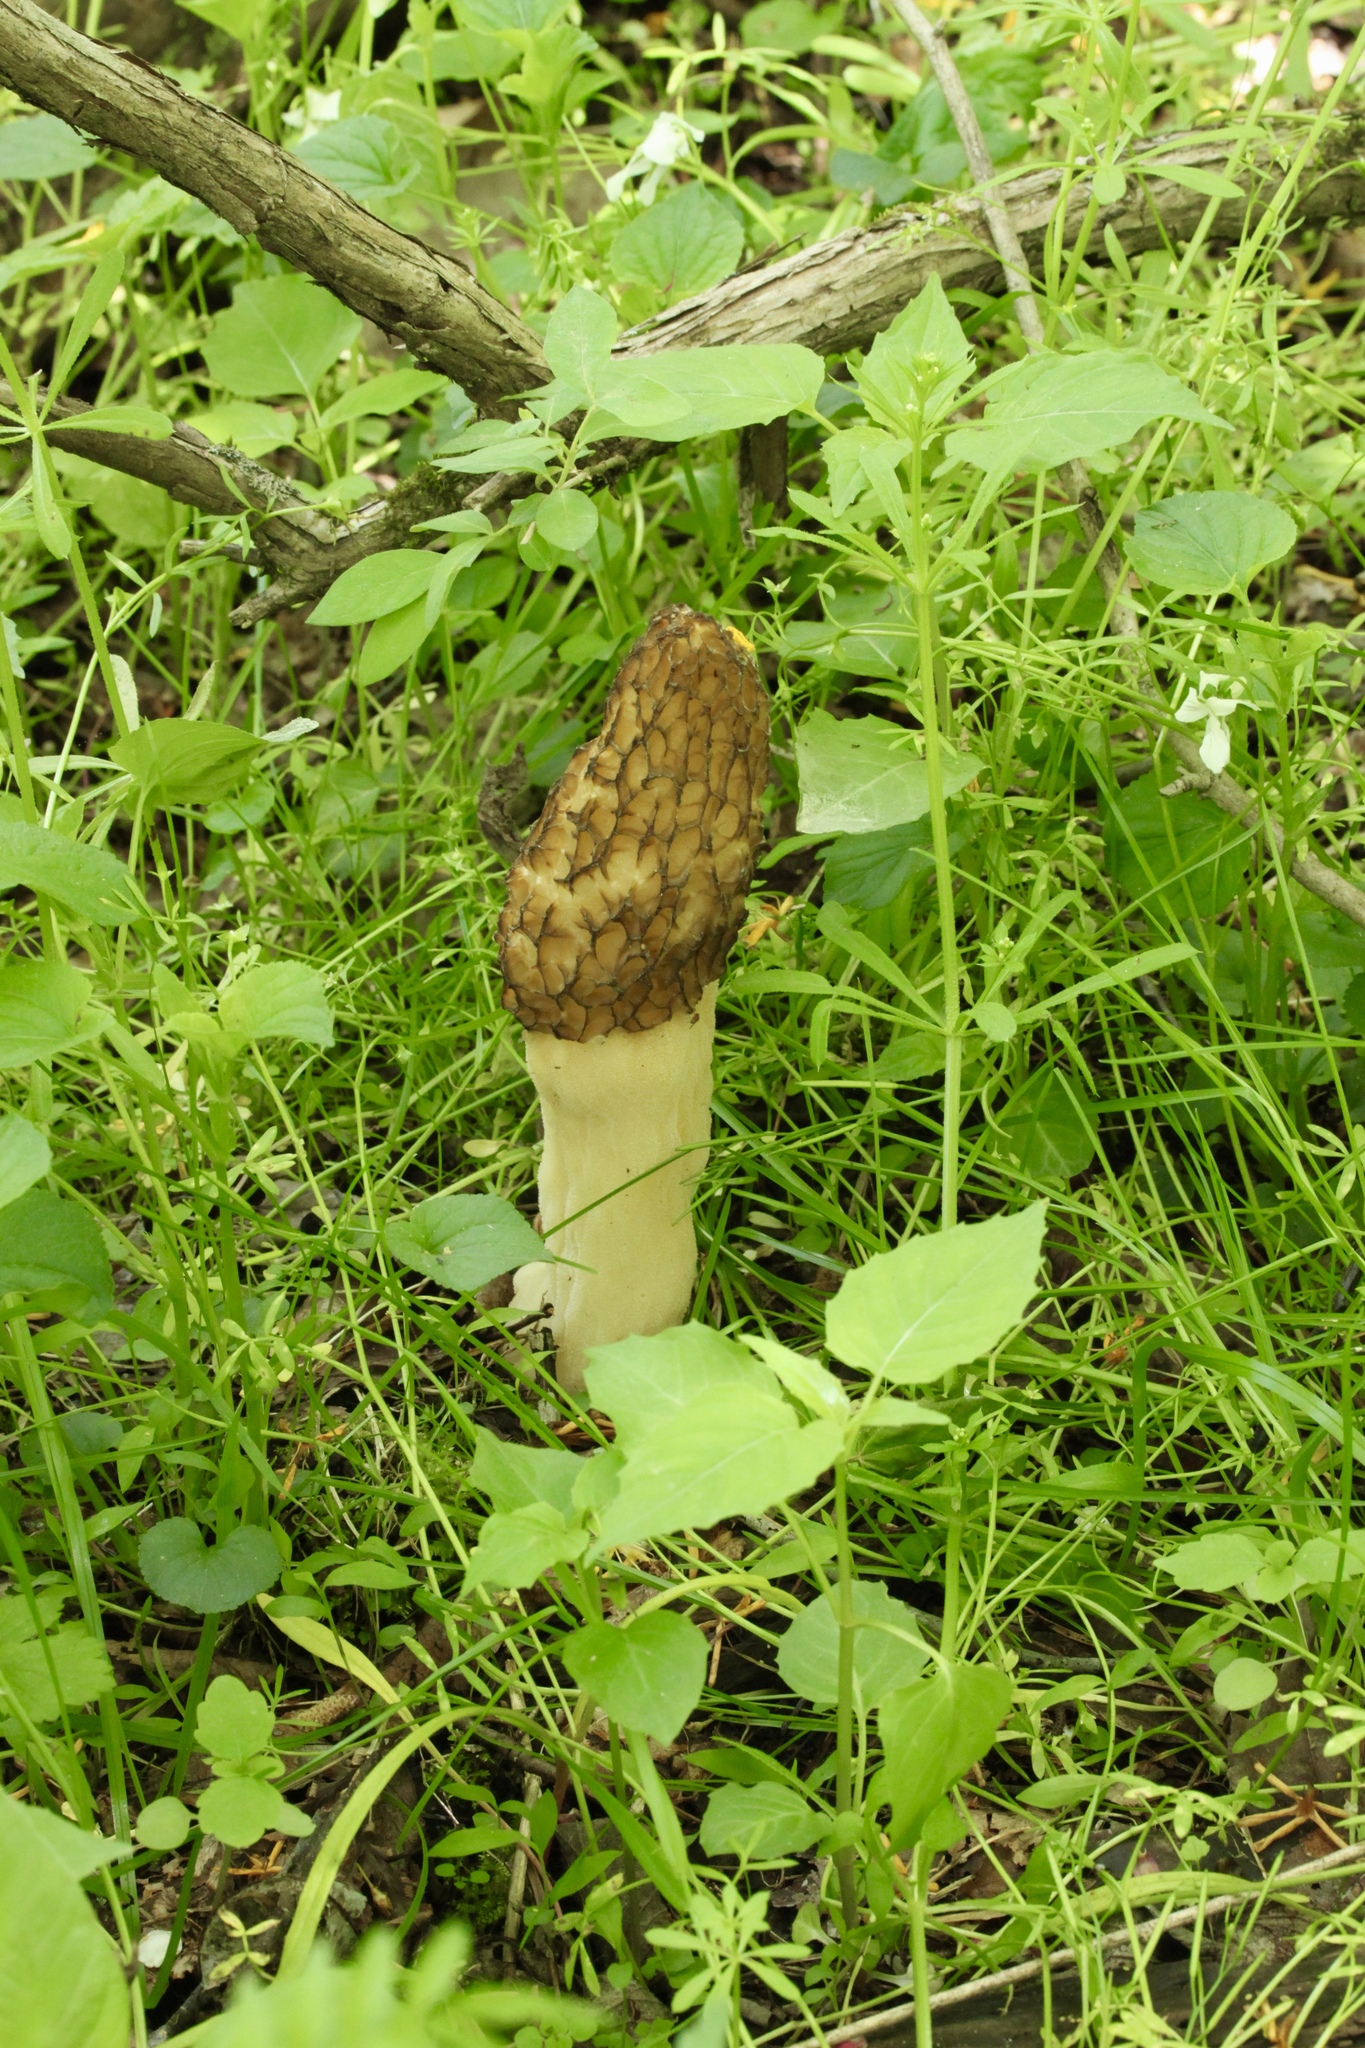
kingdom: Fungi
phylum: Ascomycota
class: Pezizomycetes
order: Pezizales
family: Morchellaceae
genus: Morchella
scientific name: Morchella americana
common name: White morel
